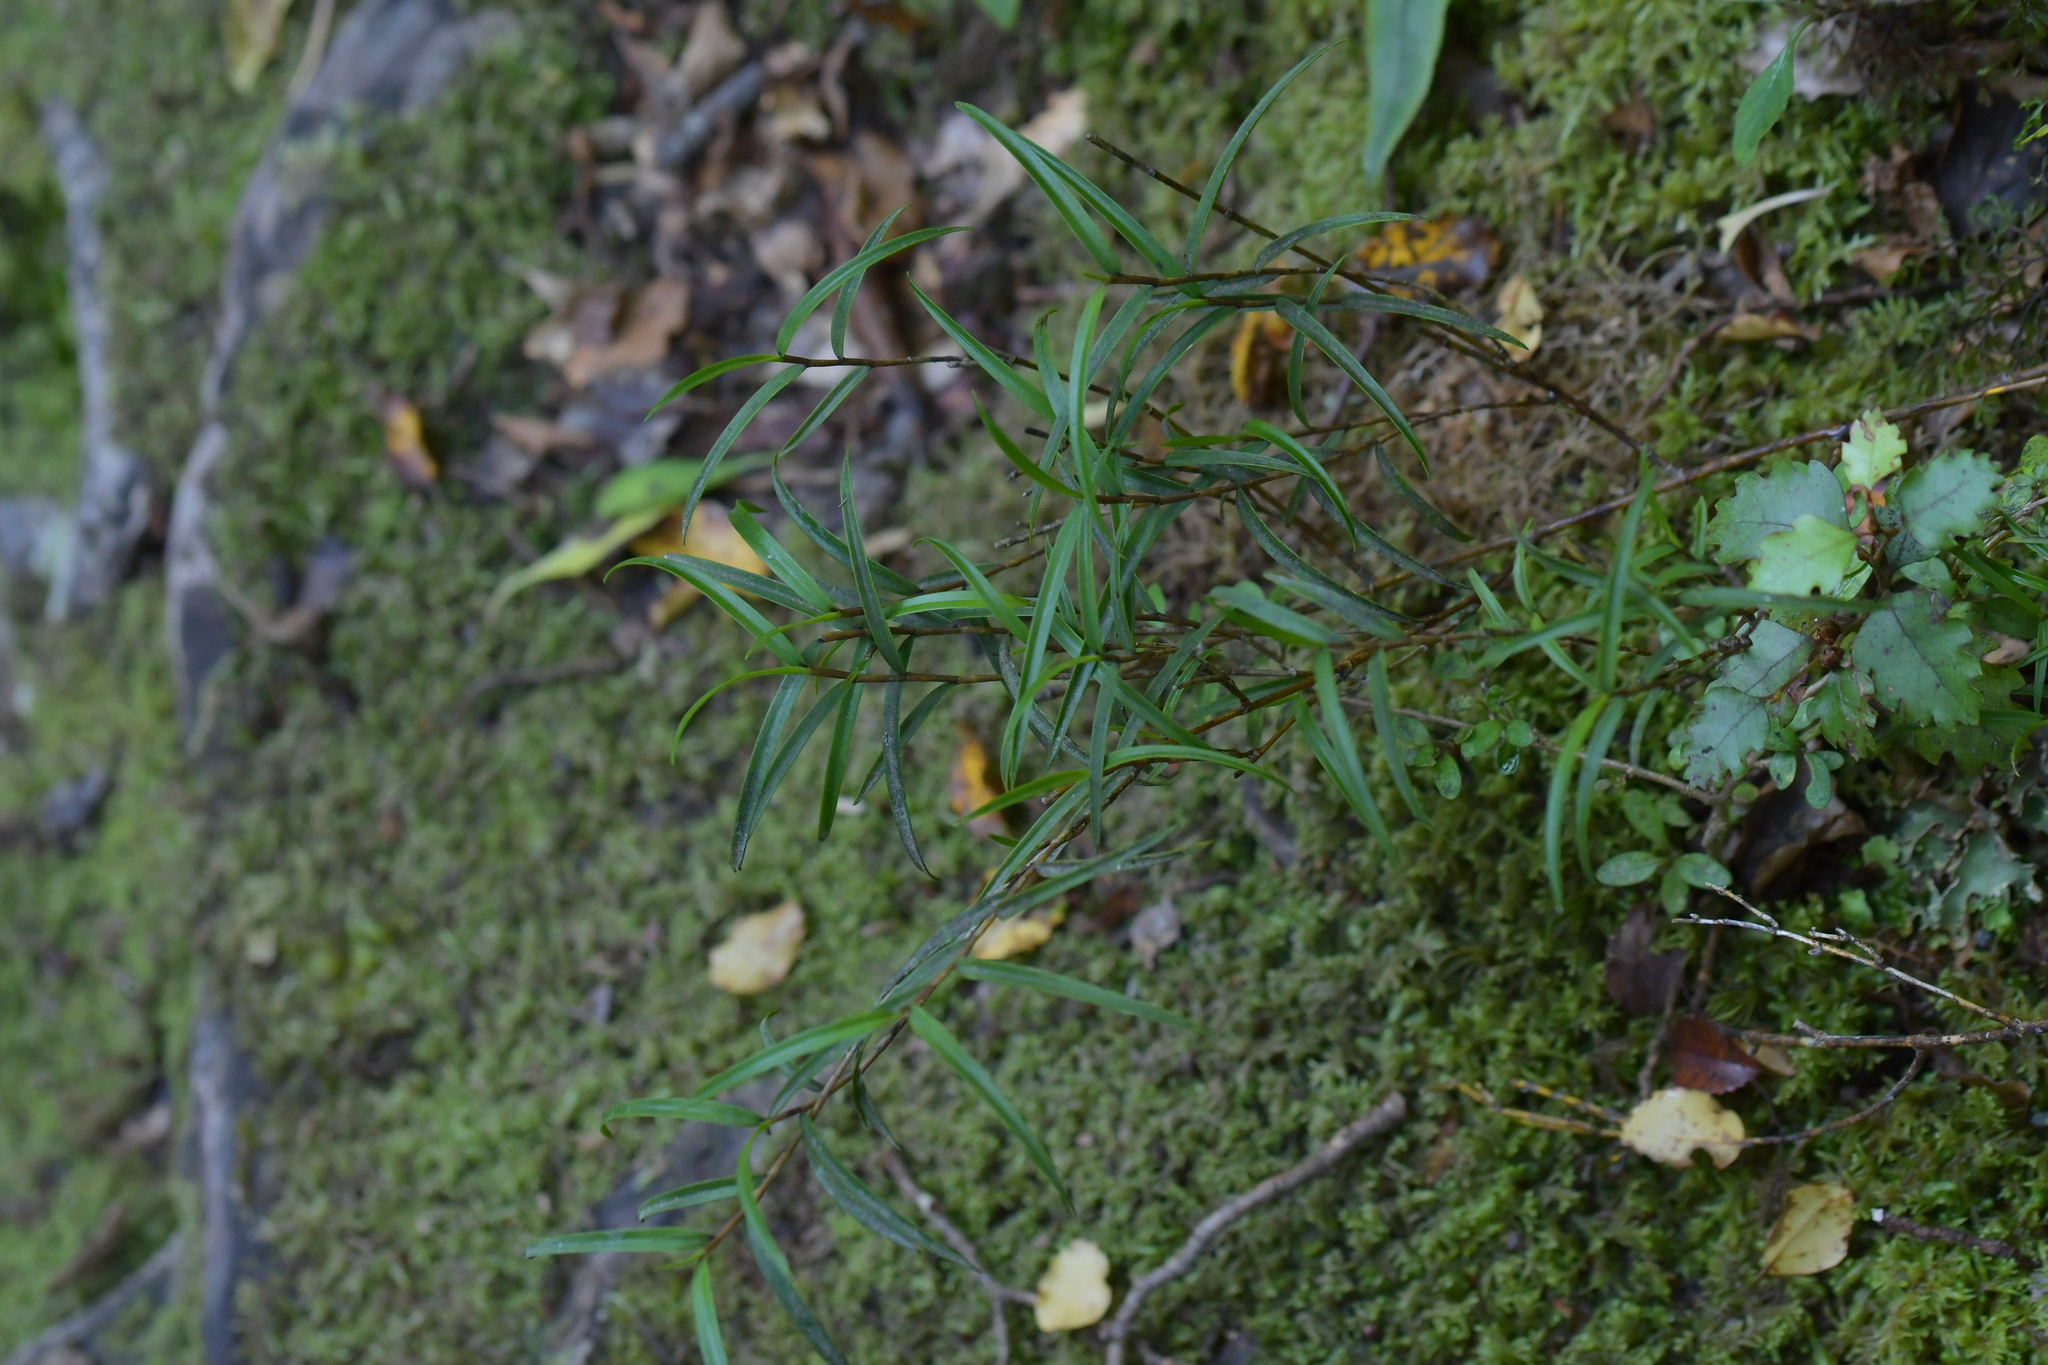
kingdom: Plantae
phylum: Tracheophyta
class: Liliopsida
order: Asparagales
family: Orchidaceae
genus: Dendrobium
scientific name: Dendrobium cunninghamii
